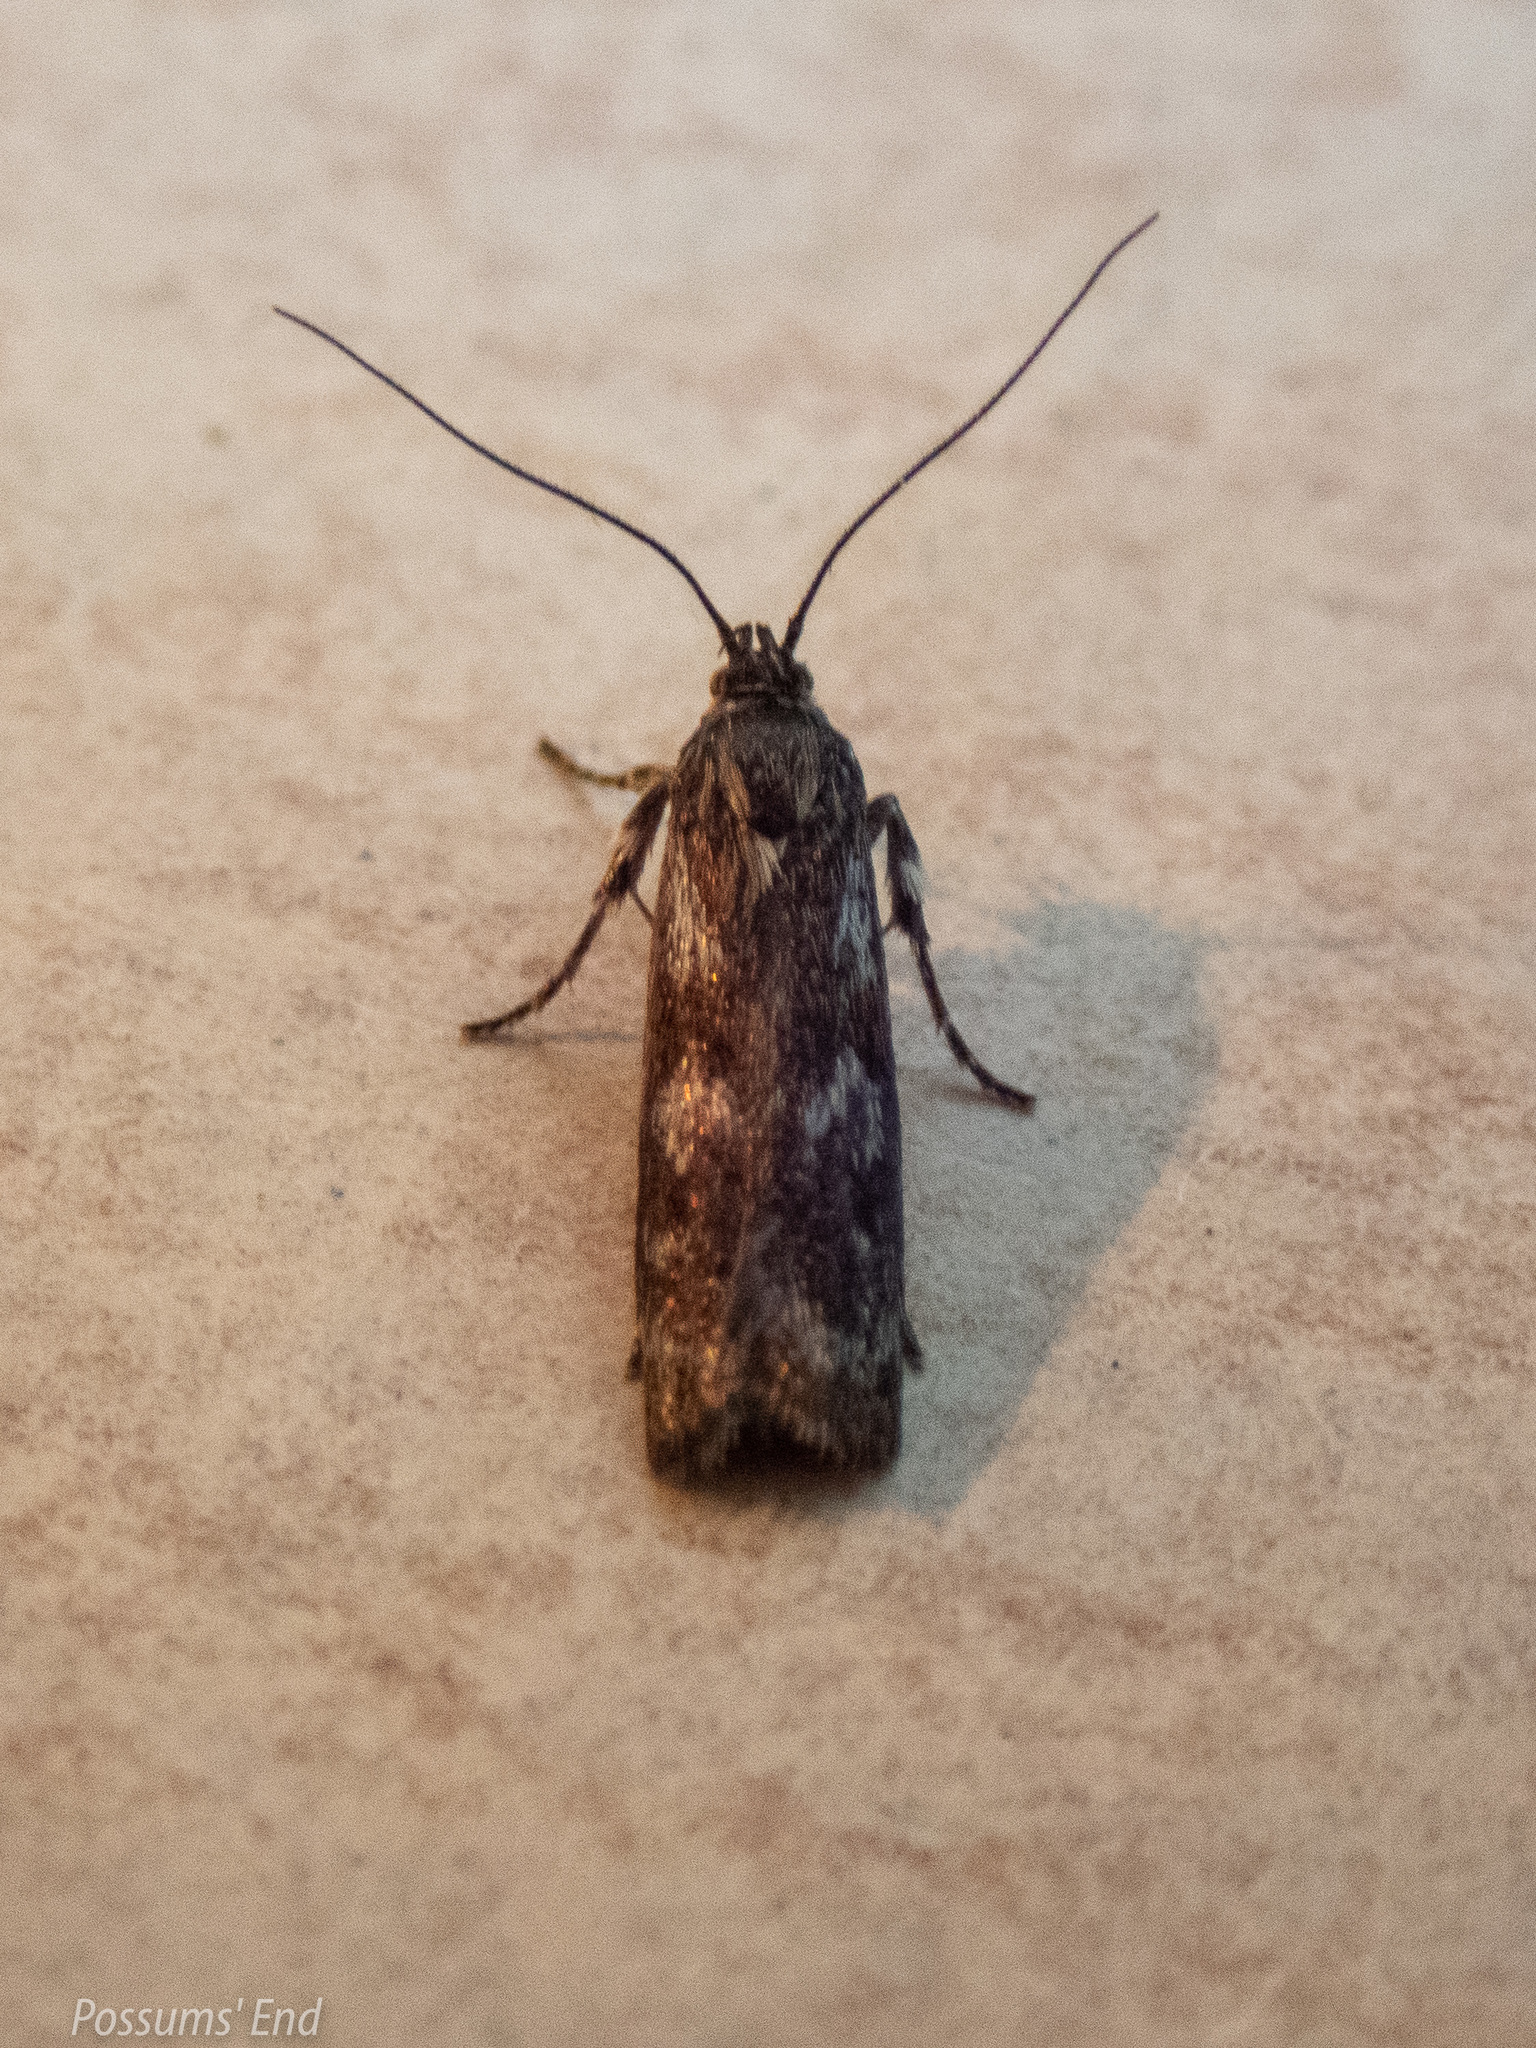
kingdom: Animalia
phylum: Arthropoda
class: Insecta
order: Lepidoptera
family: Oecophoridae
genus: Hierodoris
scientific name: Hierodoris atychioides
